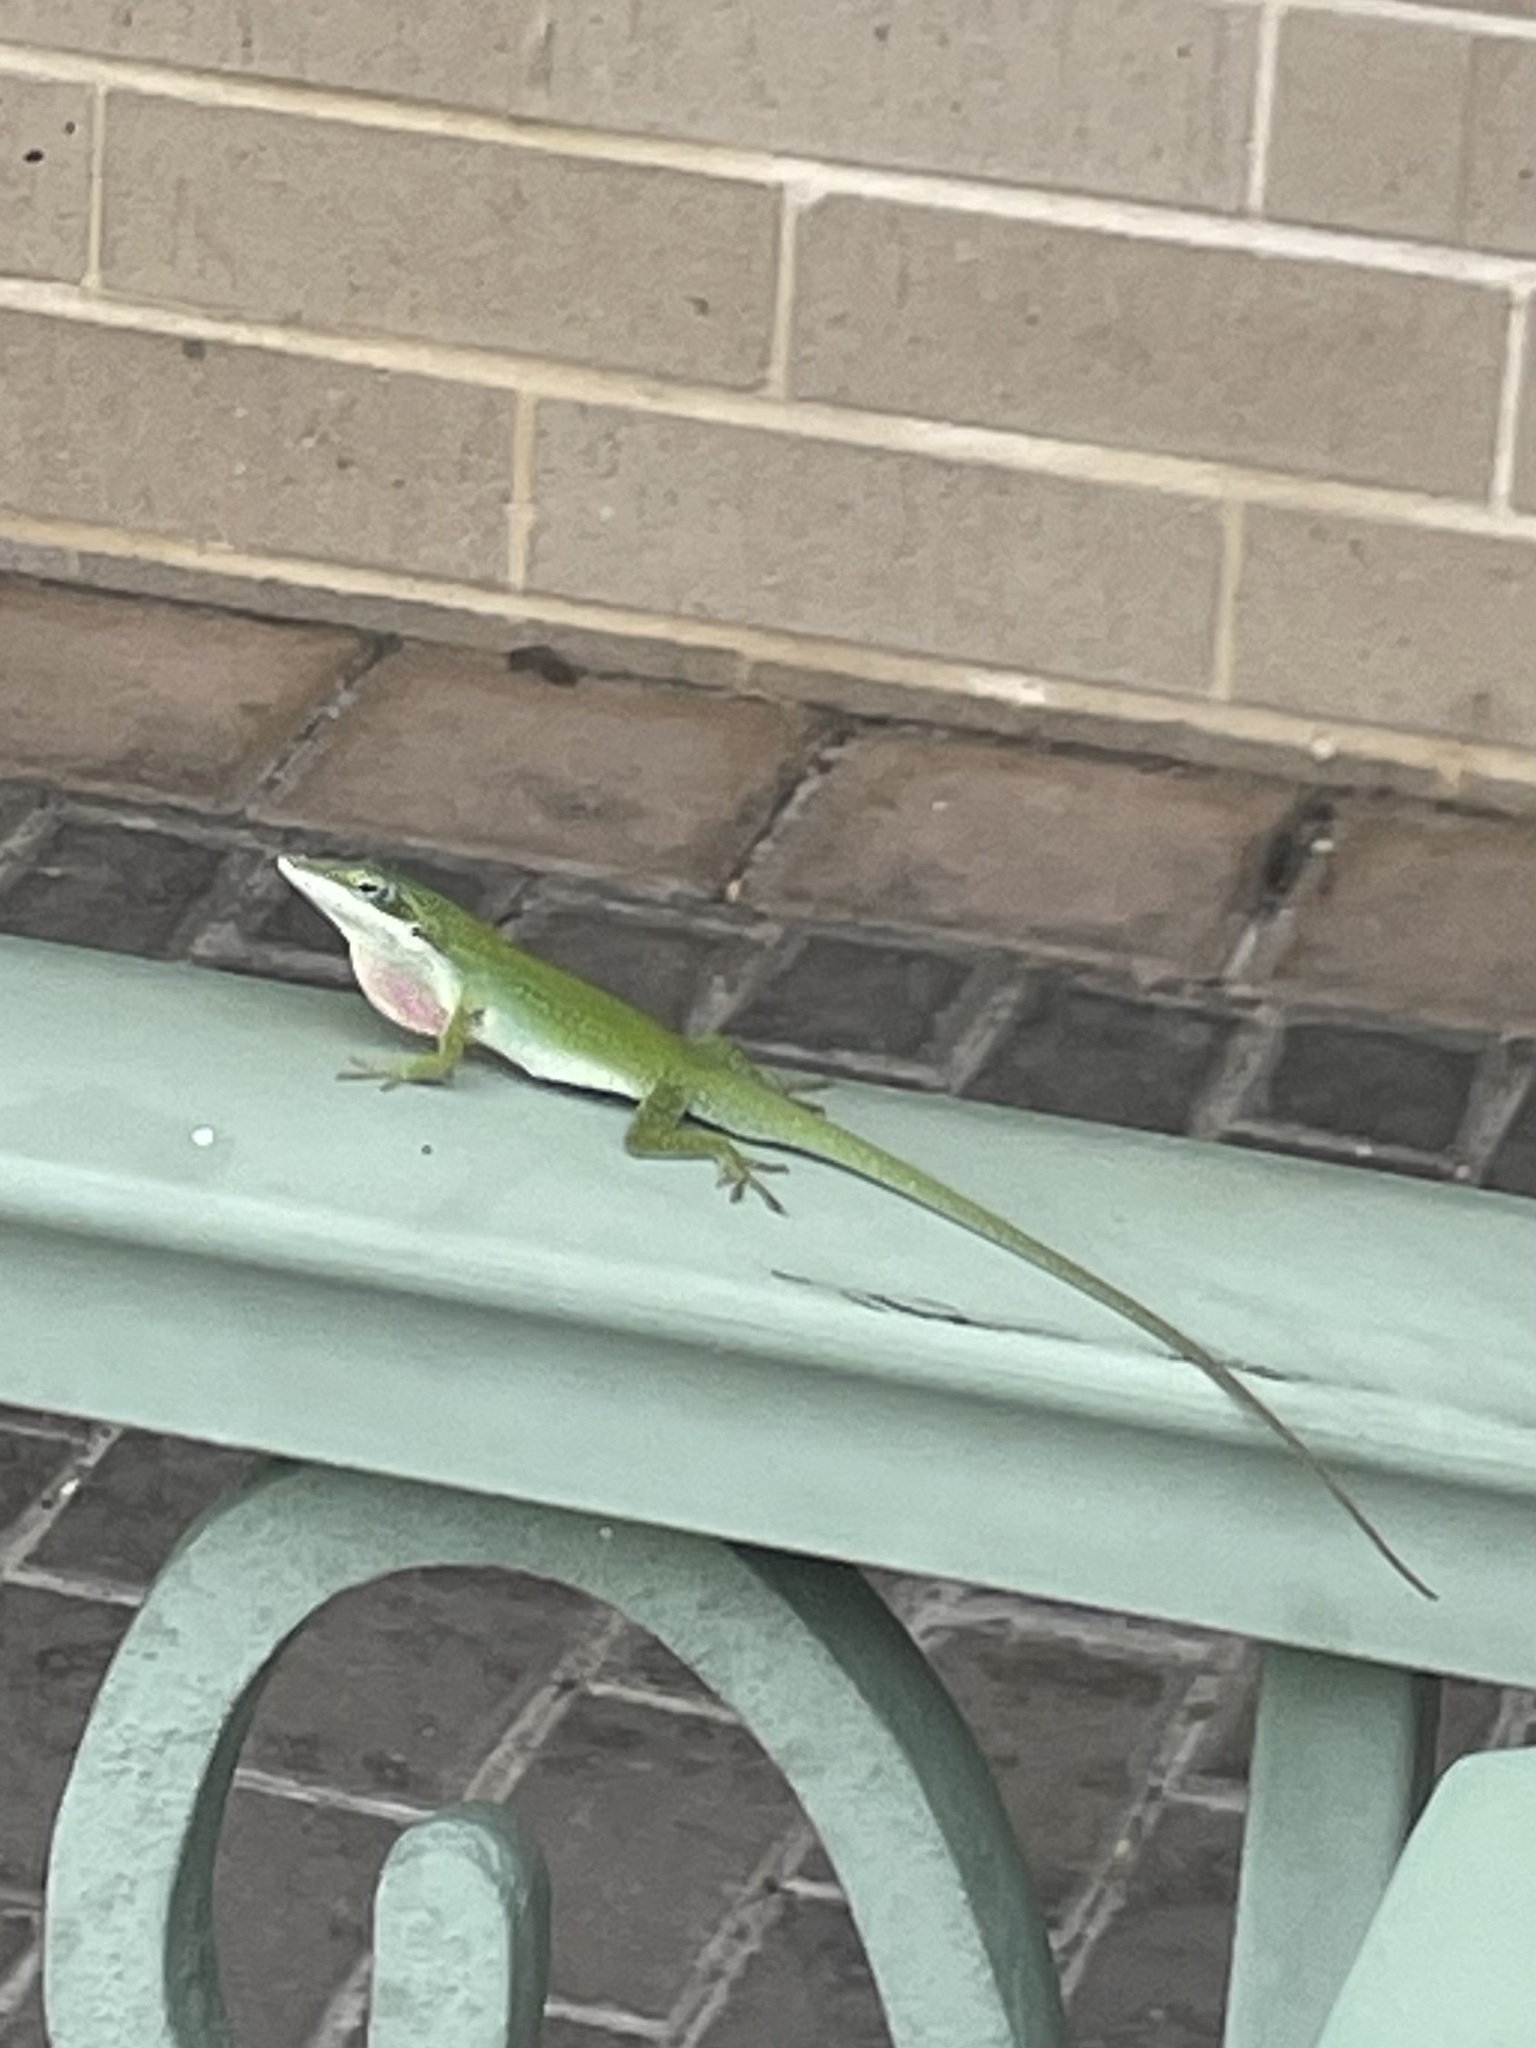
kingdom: Animalia
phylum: Chordata
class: Squamata
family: Dactyloidae
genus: Anolis
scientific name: Anolis carolinensis
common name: Green anole
